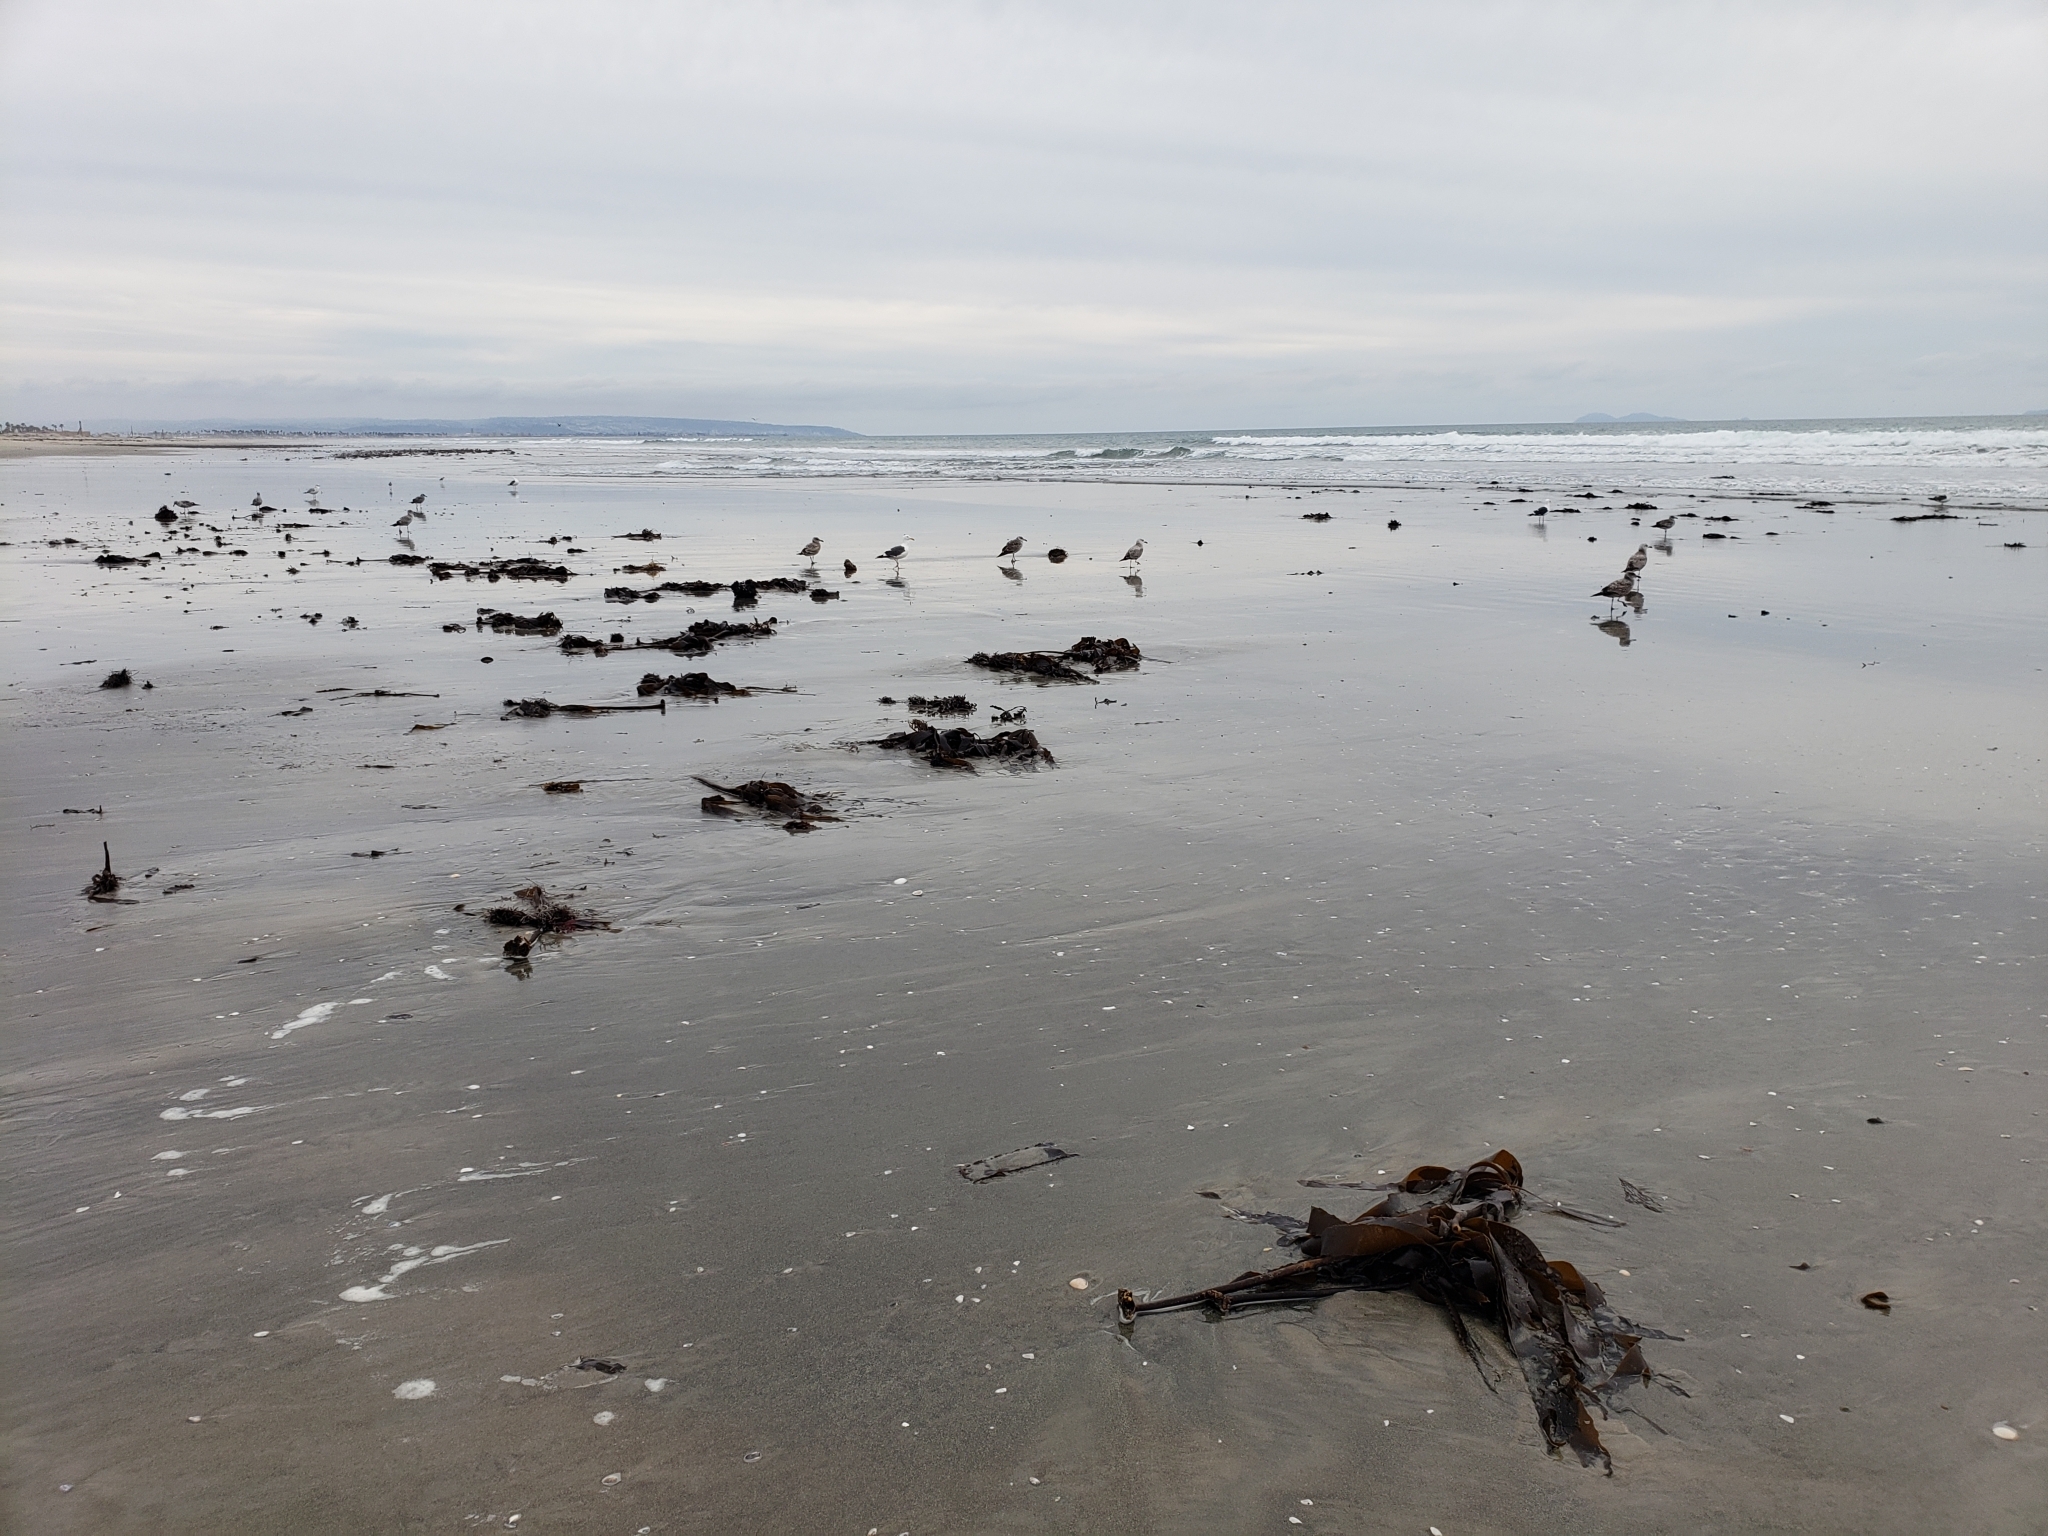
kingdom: Chromista
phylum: Ochrophyta
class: Phaeophyceae
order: Laminariales
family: Alariaceae
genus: Pterygophora
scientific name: Pterygophora californica
